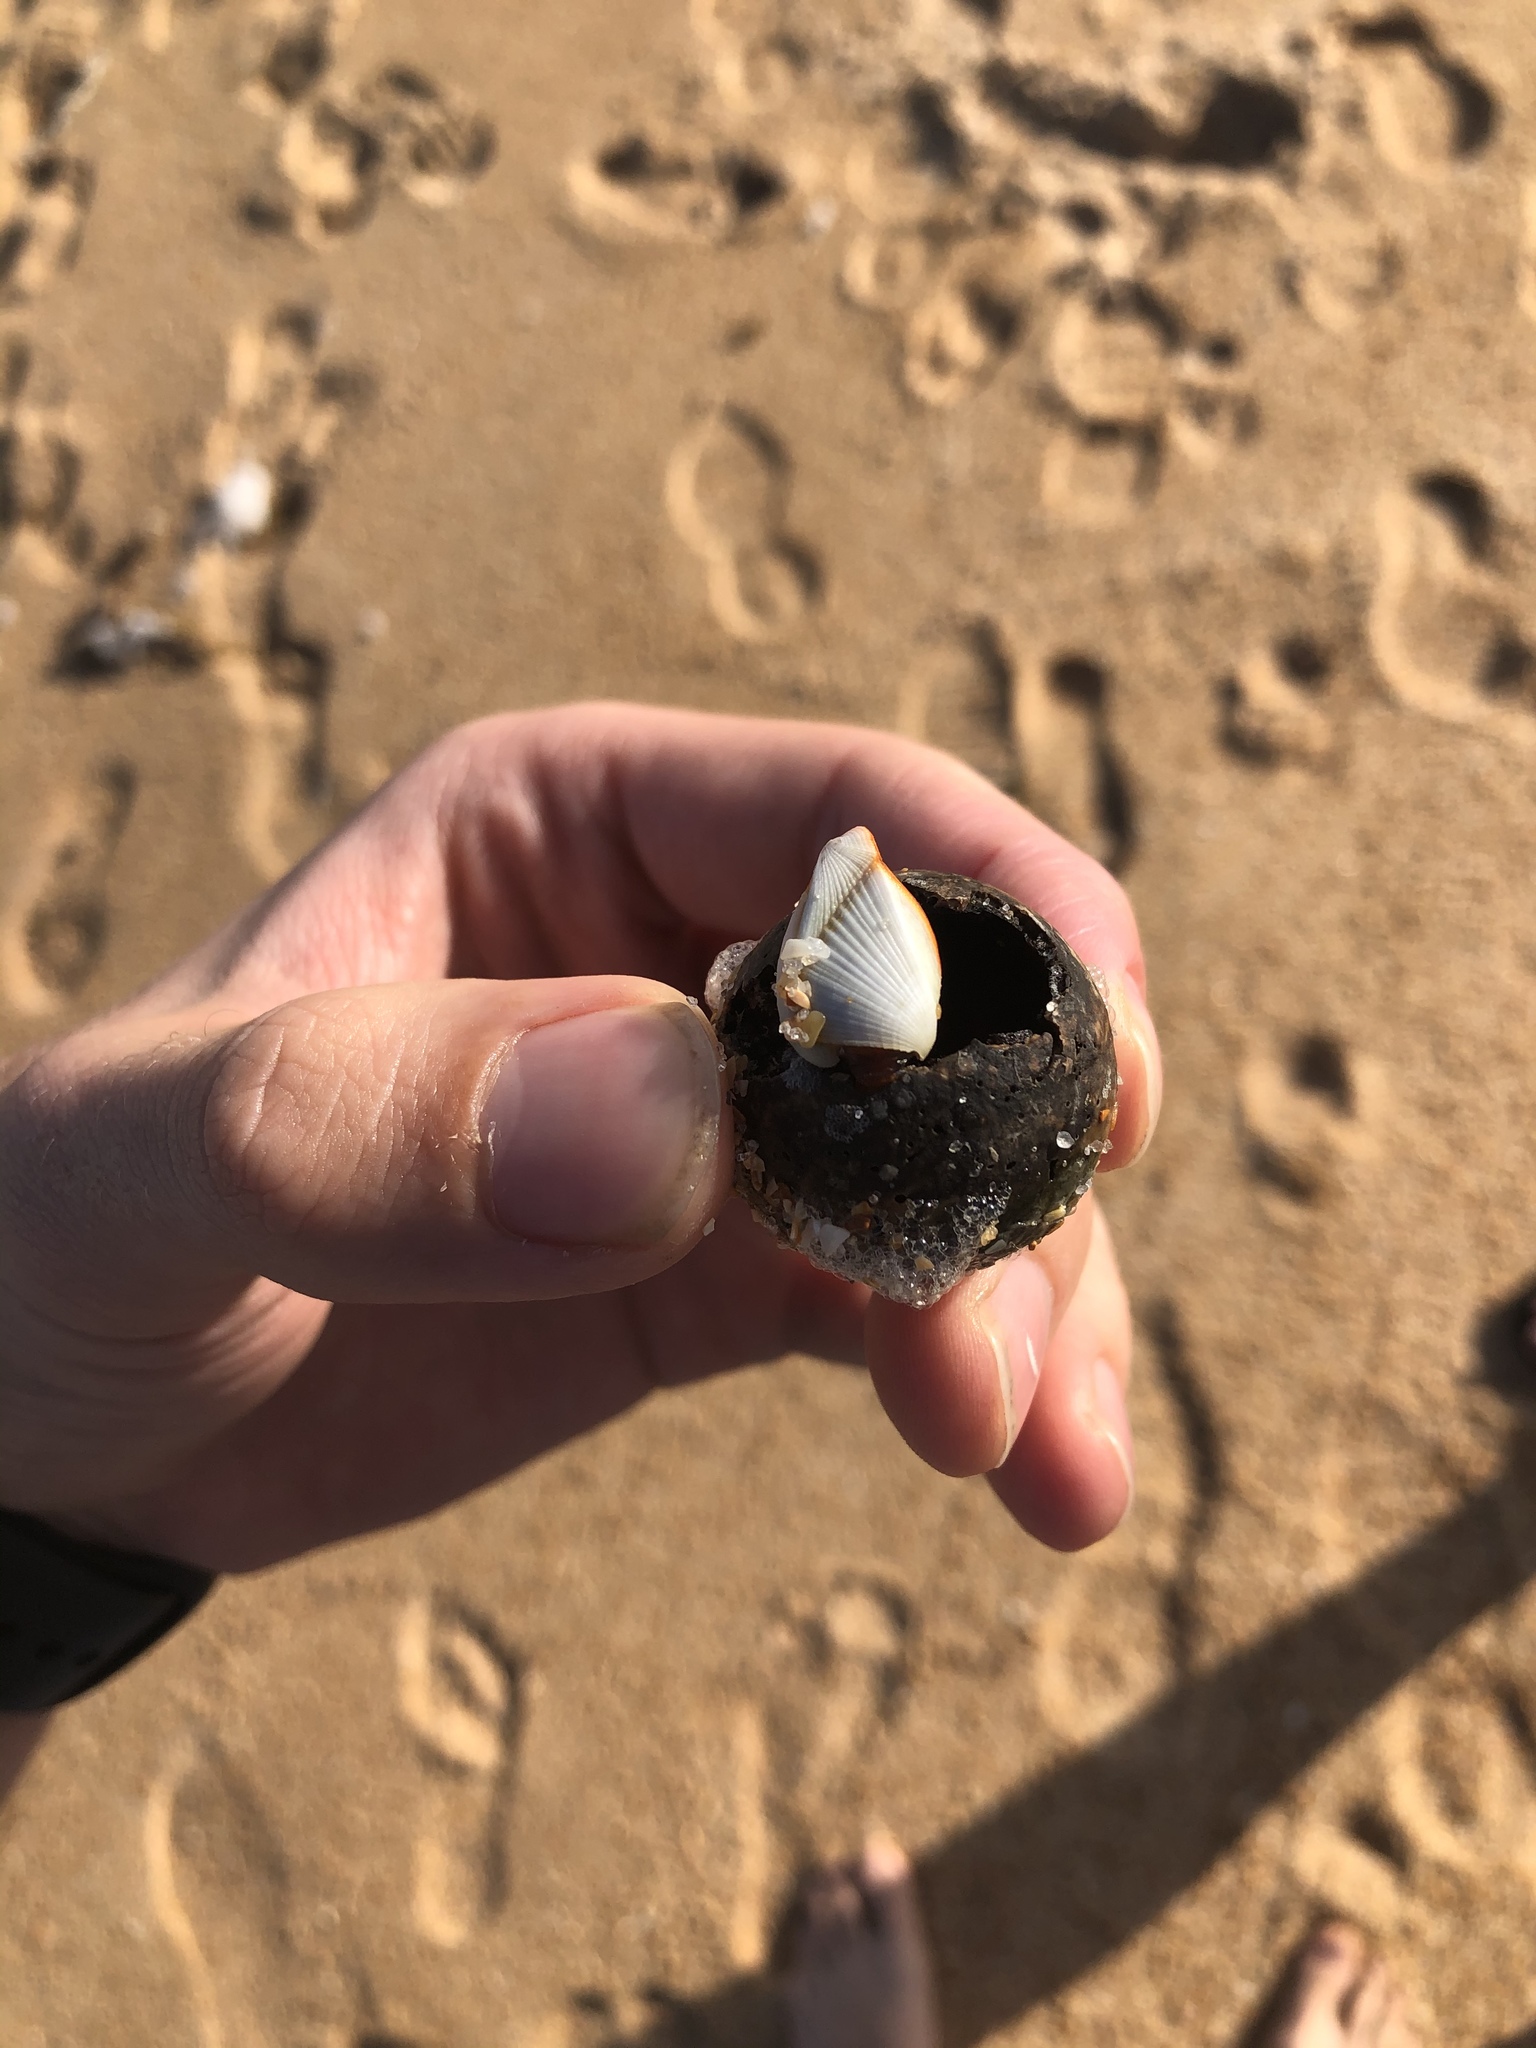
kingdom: Animalia
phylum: Arthropoda
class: Maxillopoda
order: Pedunculata
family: Lepadidae
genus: Lepas
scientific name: Lepas anserifera
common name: Goose barnacle
